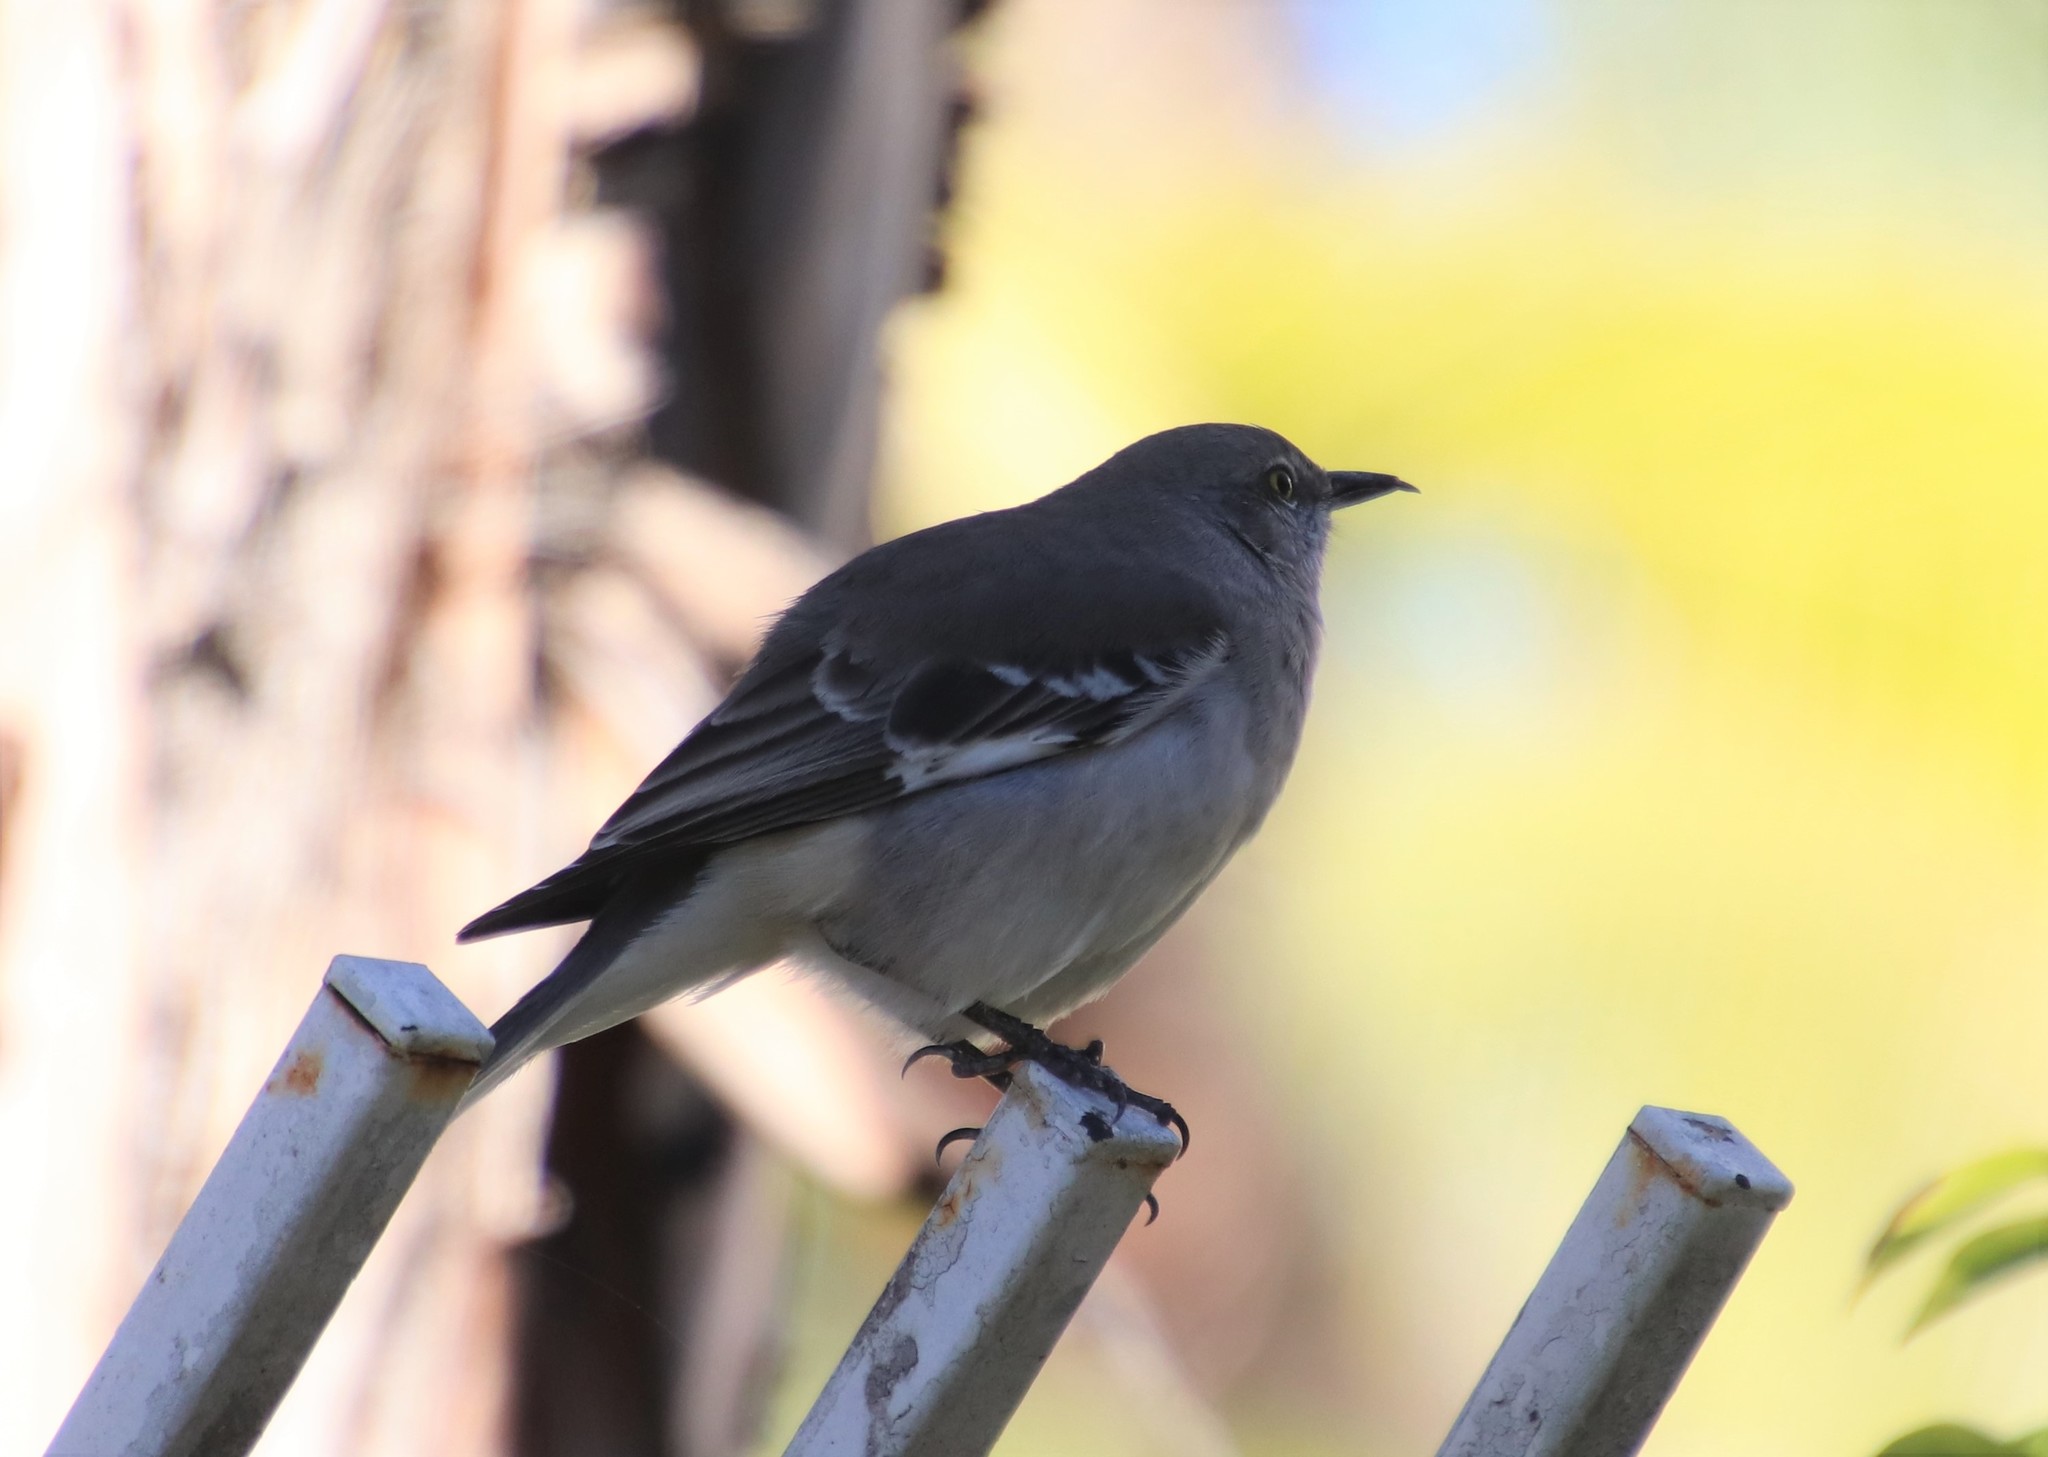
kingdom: Animalia
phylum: Chordata
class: Aves
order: Passeriformes
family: Mimidae
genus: Mimus
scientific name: Mimus polyglottos
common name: Northern mockingbird
